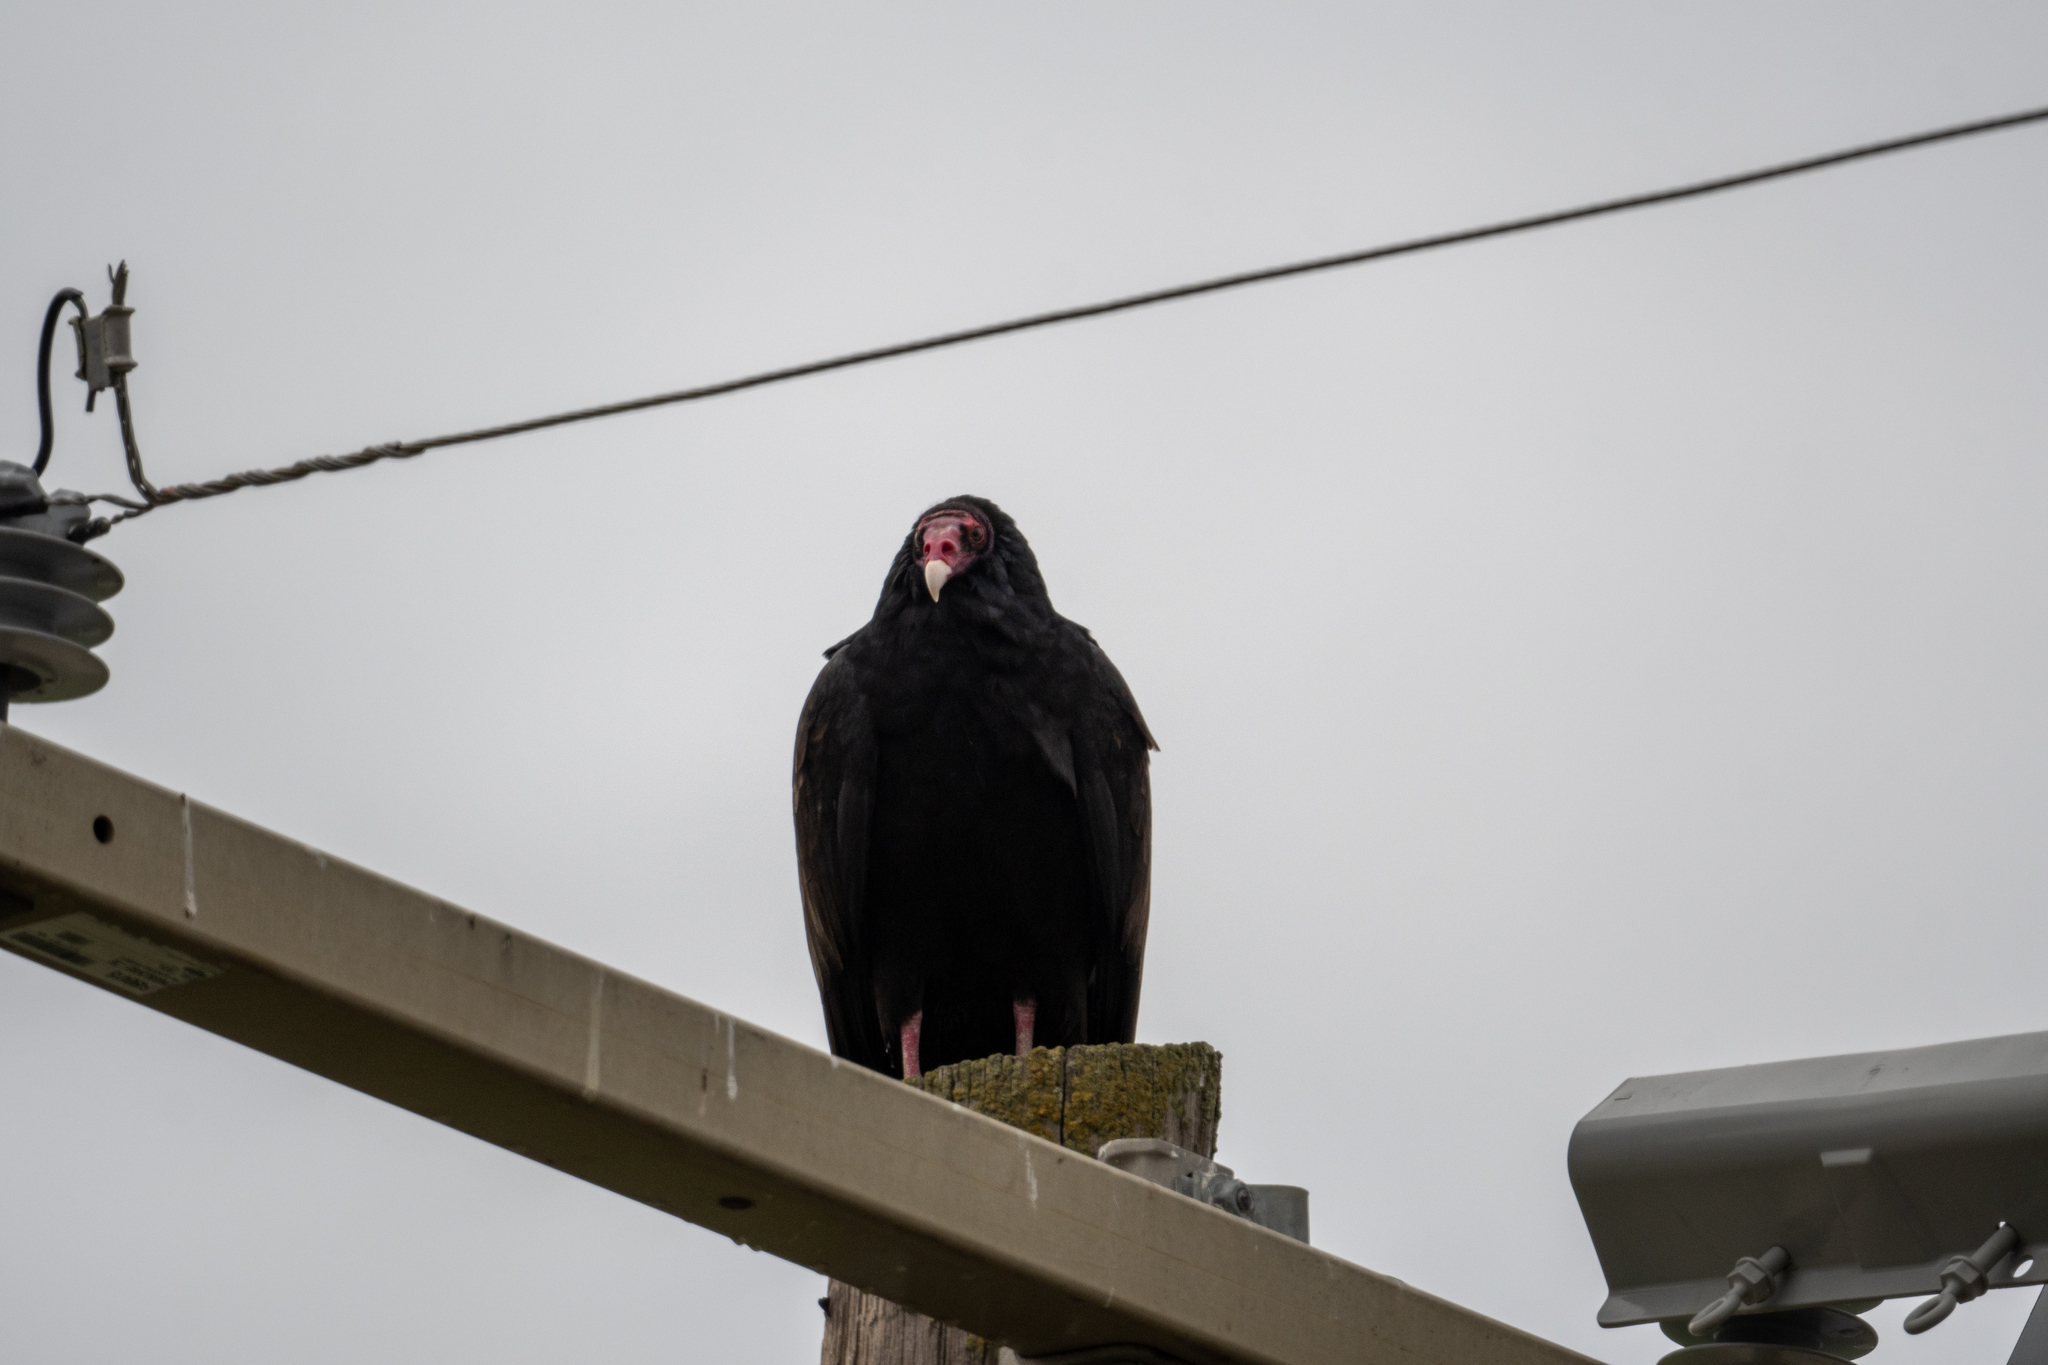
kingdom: Animalia
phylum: Chordata
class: Aves
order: Accipitriformes
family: Cathartidae
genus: Cathartes
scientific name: Cathartes aura
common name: Turkey vulture
